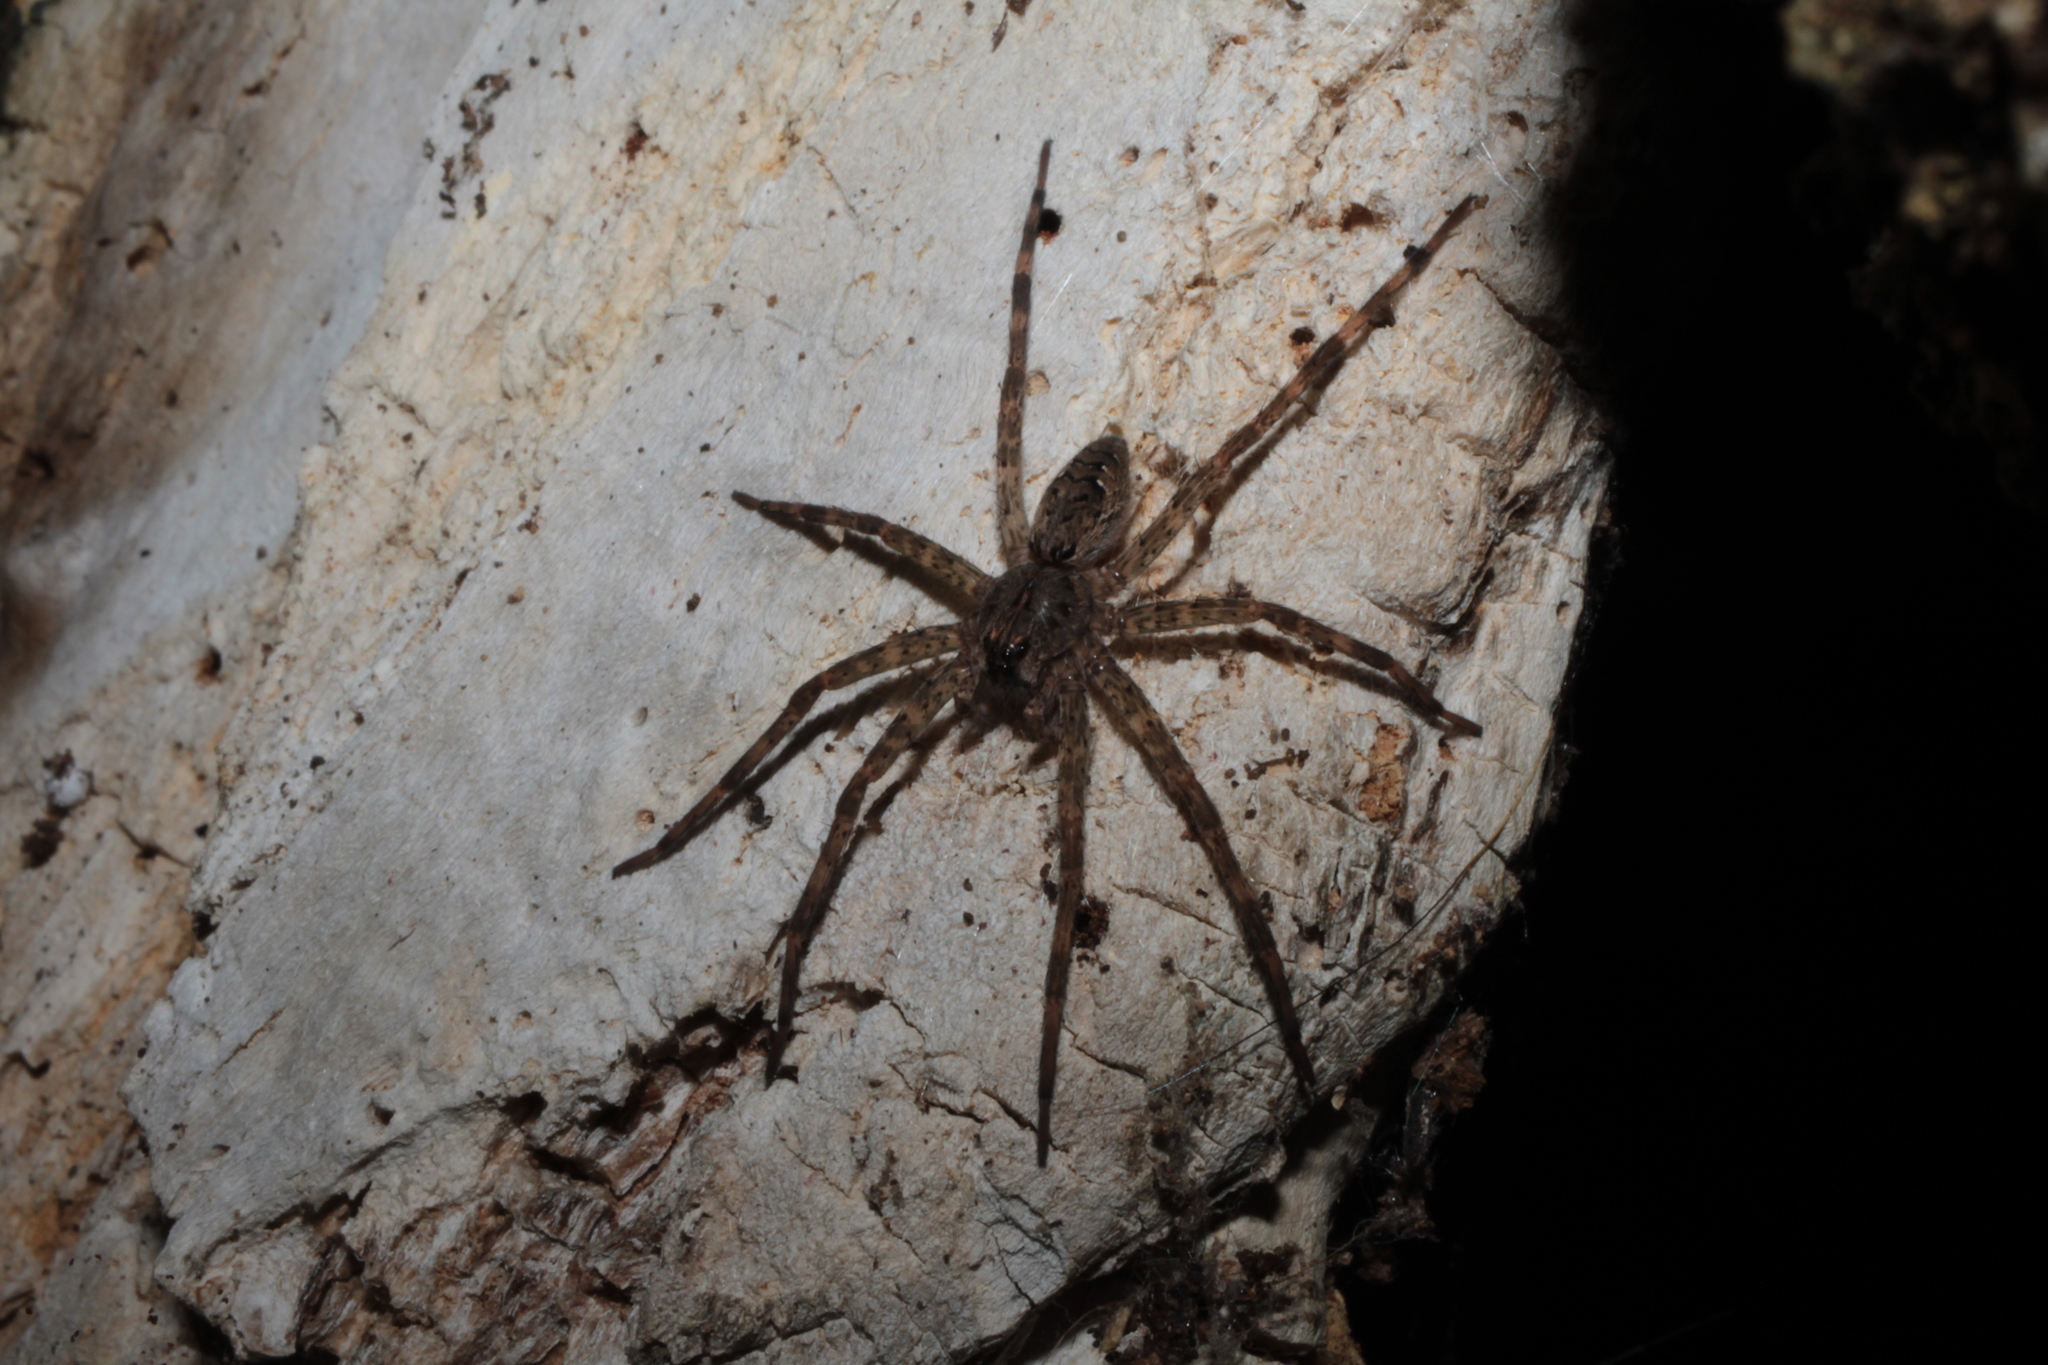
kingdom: Animalia
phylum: Arthropoda
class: Arachnida
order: Araneae
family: Pisauridae
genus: Dolomedes
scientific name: Dolomedes tenebrosus
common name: Dark fishing spider
